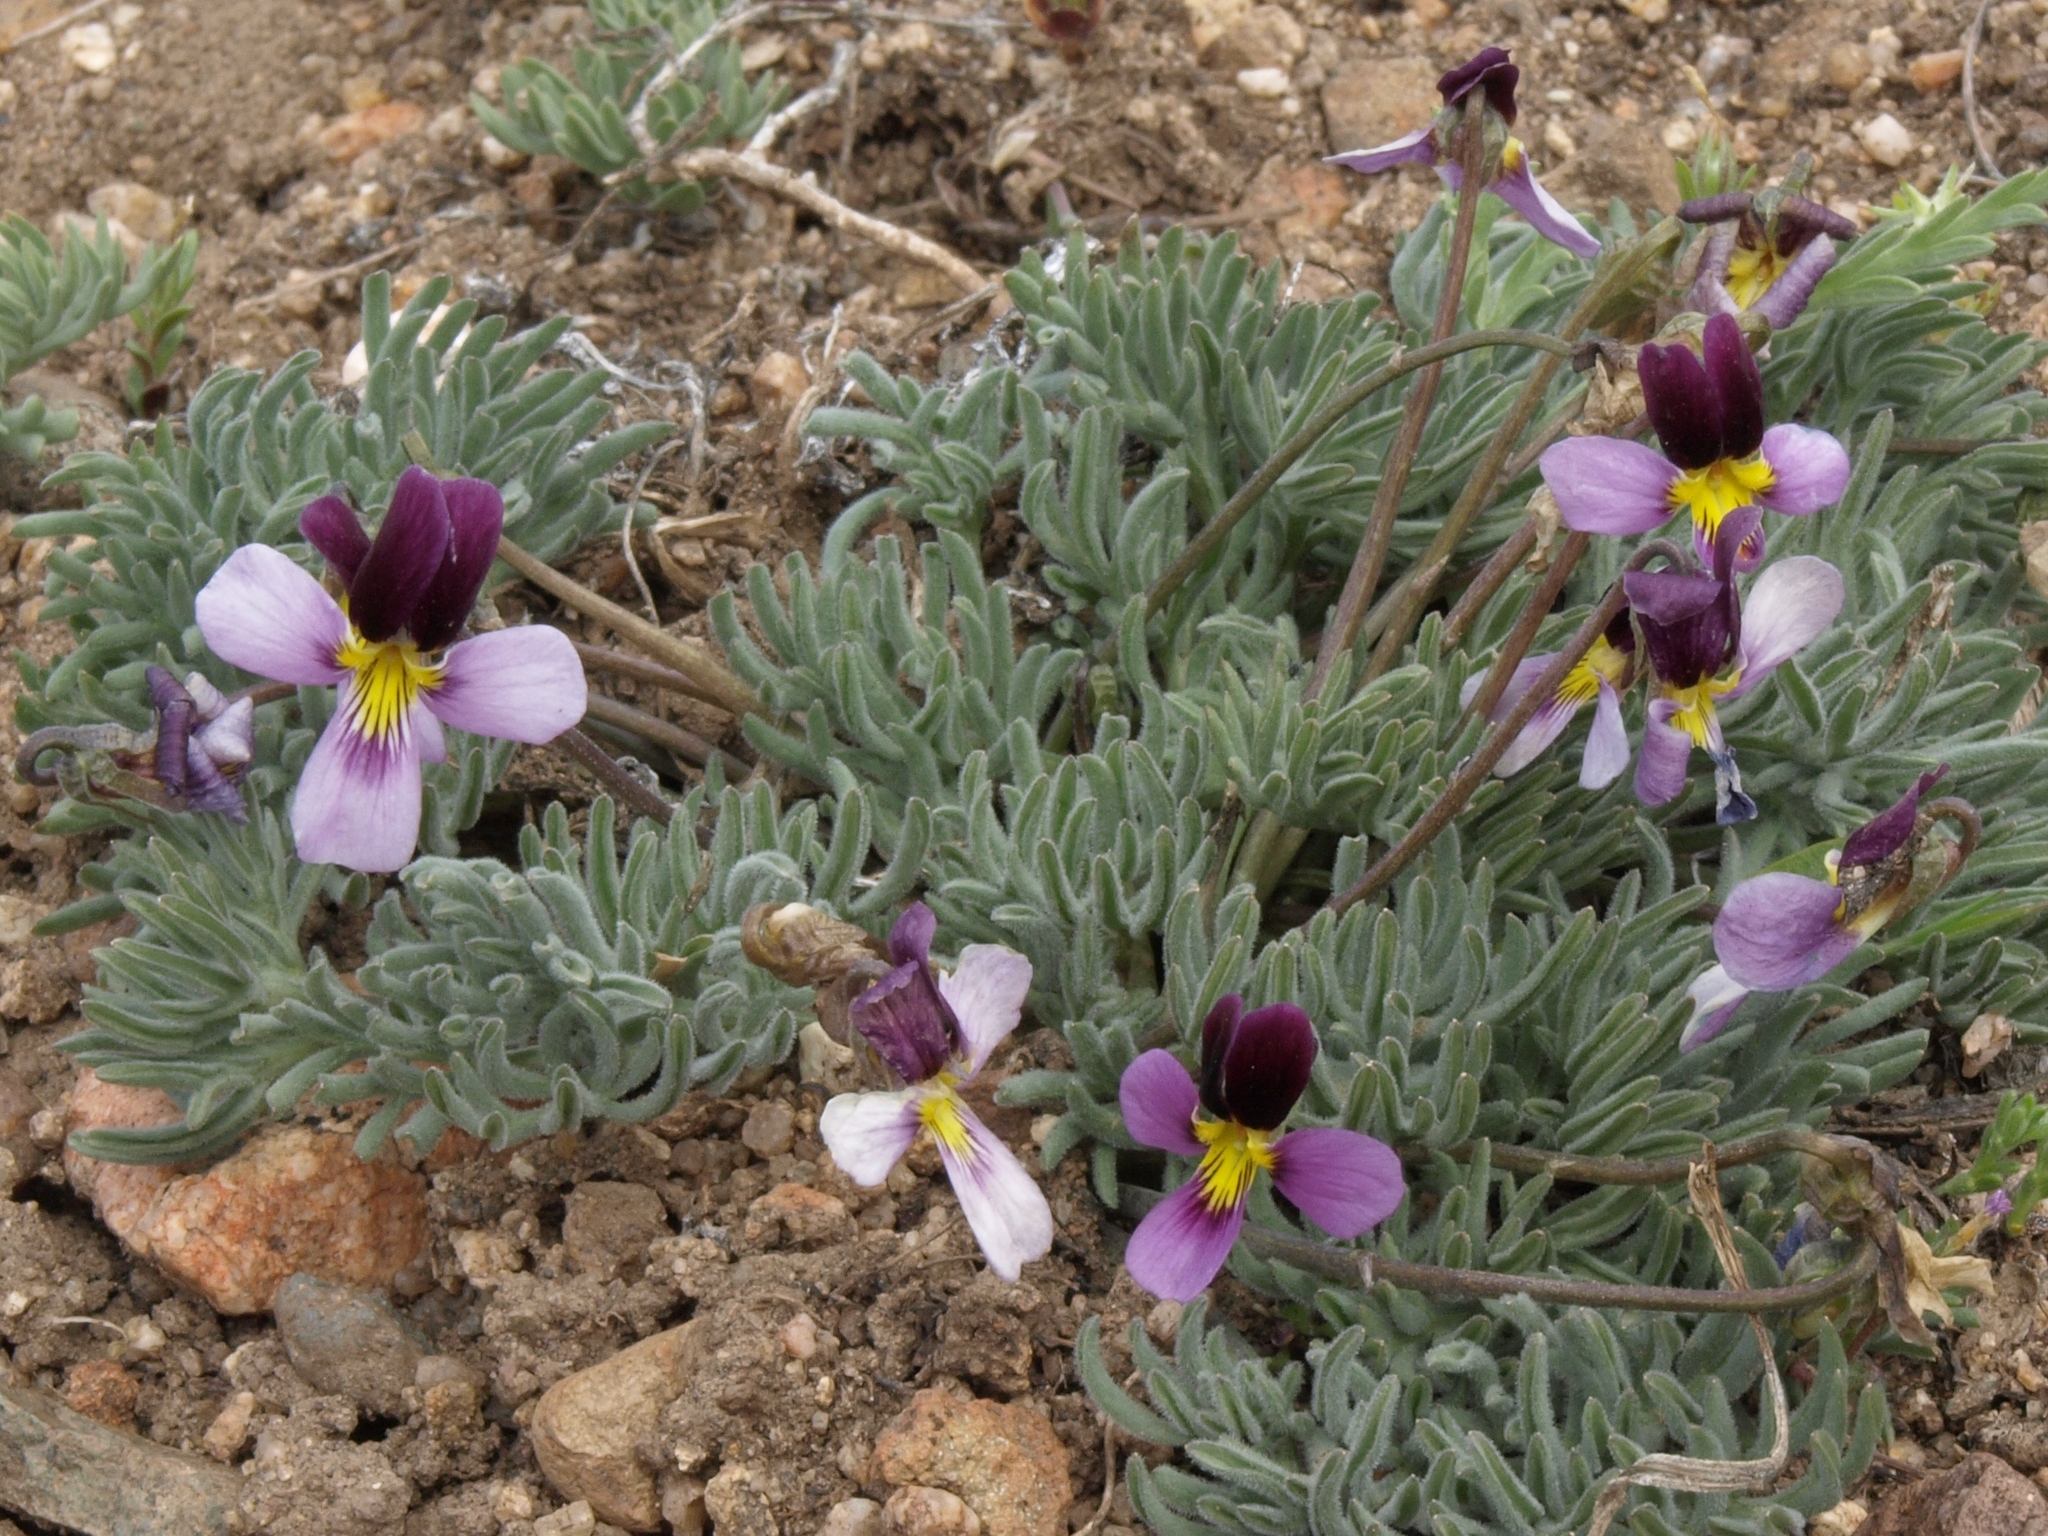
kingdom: Plantae
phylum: Tracheophyta
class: Magnoliopsida
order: Malpighiales
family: Violaceae
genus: Viola
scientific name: Viola beckwithii
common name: Beckwith's violet
